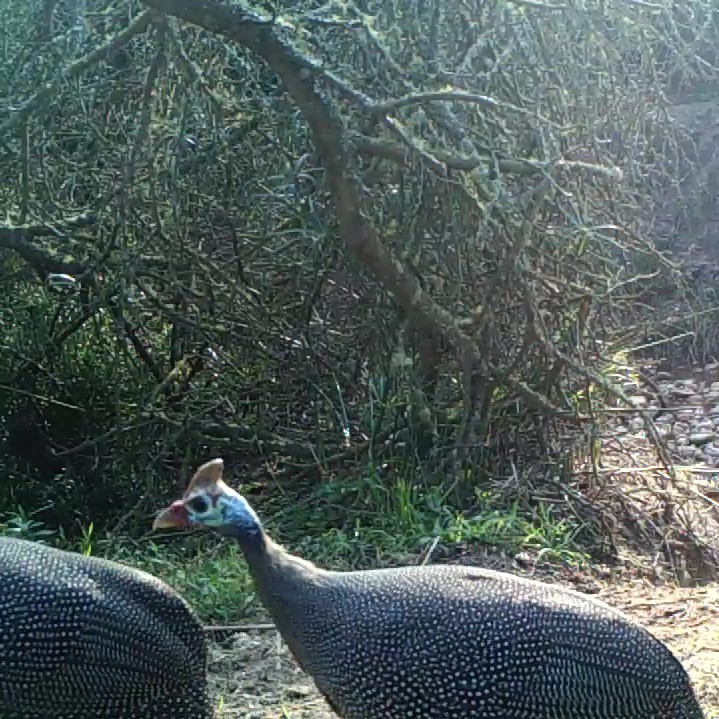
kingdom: Animalia
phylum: Chordata
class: Aves
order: Galliformes
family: Numididae
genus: Numida
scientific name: Numida meleagris
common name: Helmeted guineafowl
